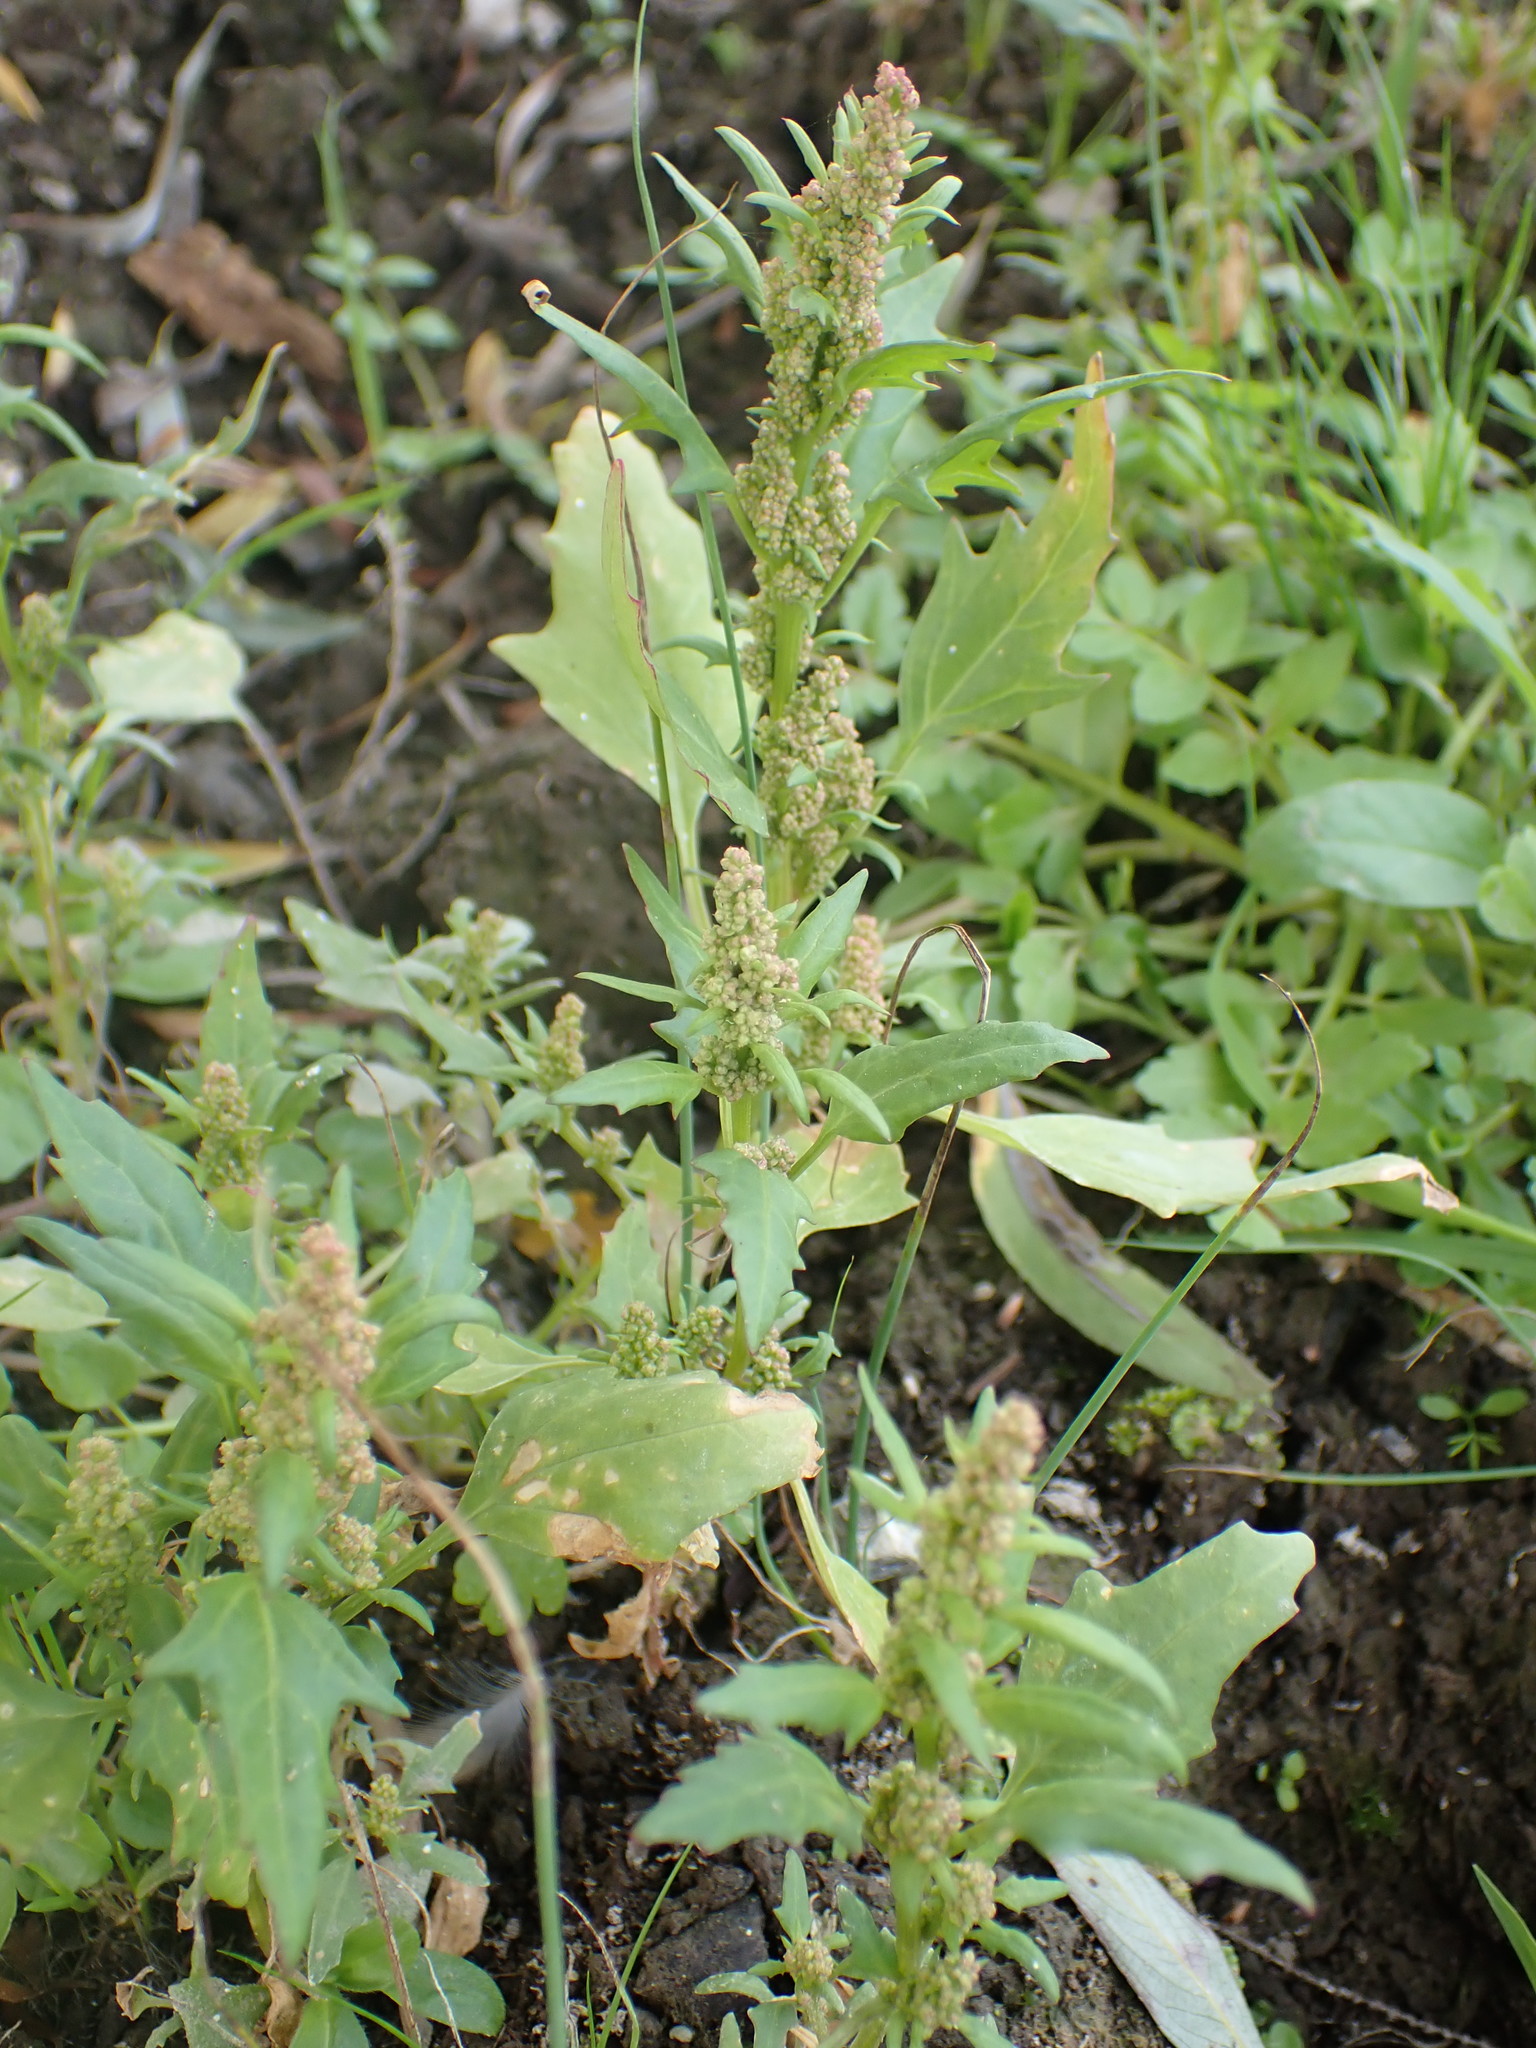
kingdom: Plantae
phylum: Tracheophyta
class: Magnoliopsida
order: Caryophyllales
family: Amaranthaceae
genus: Oxybasis
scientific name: Oxybasis rubra
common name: Red goosefoot
